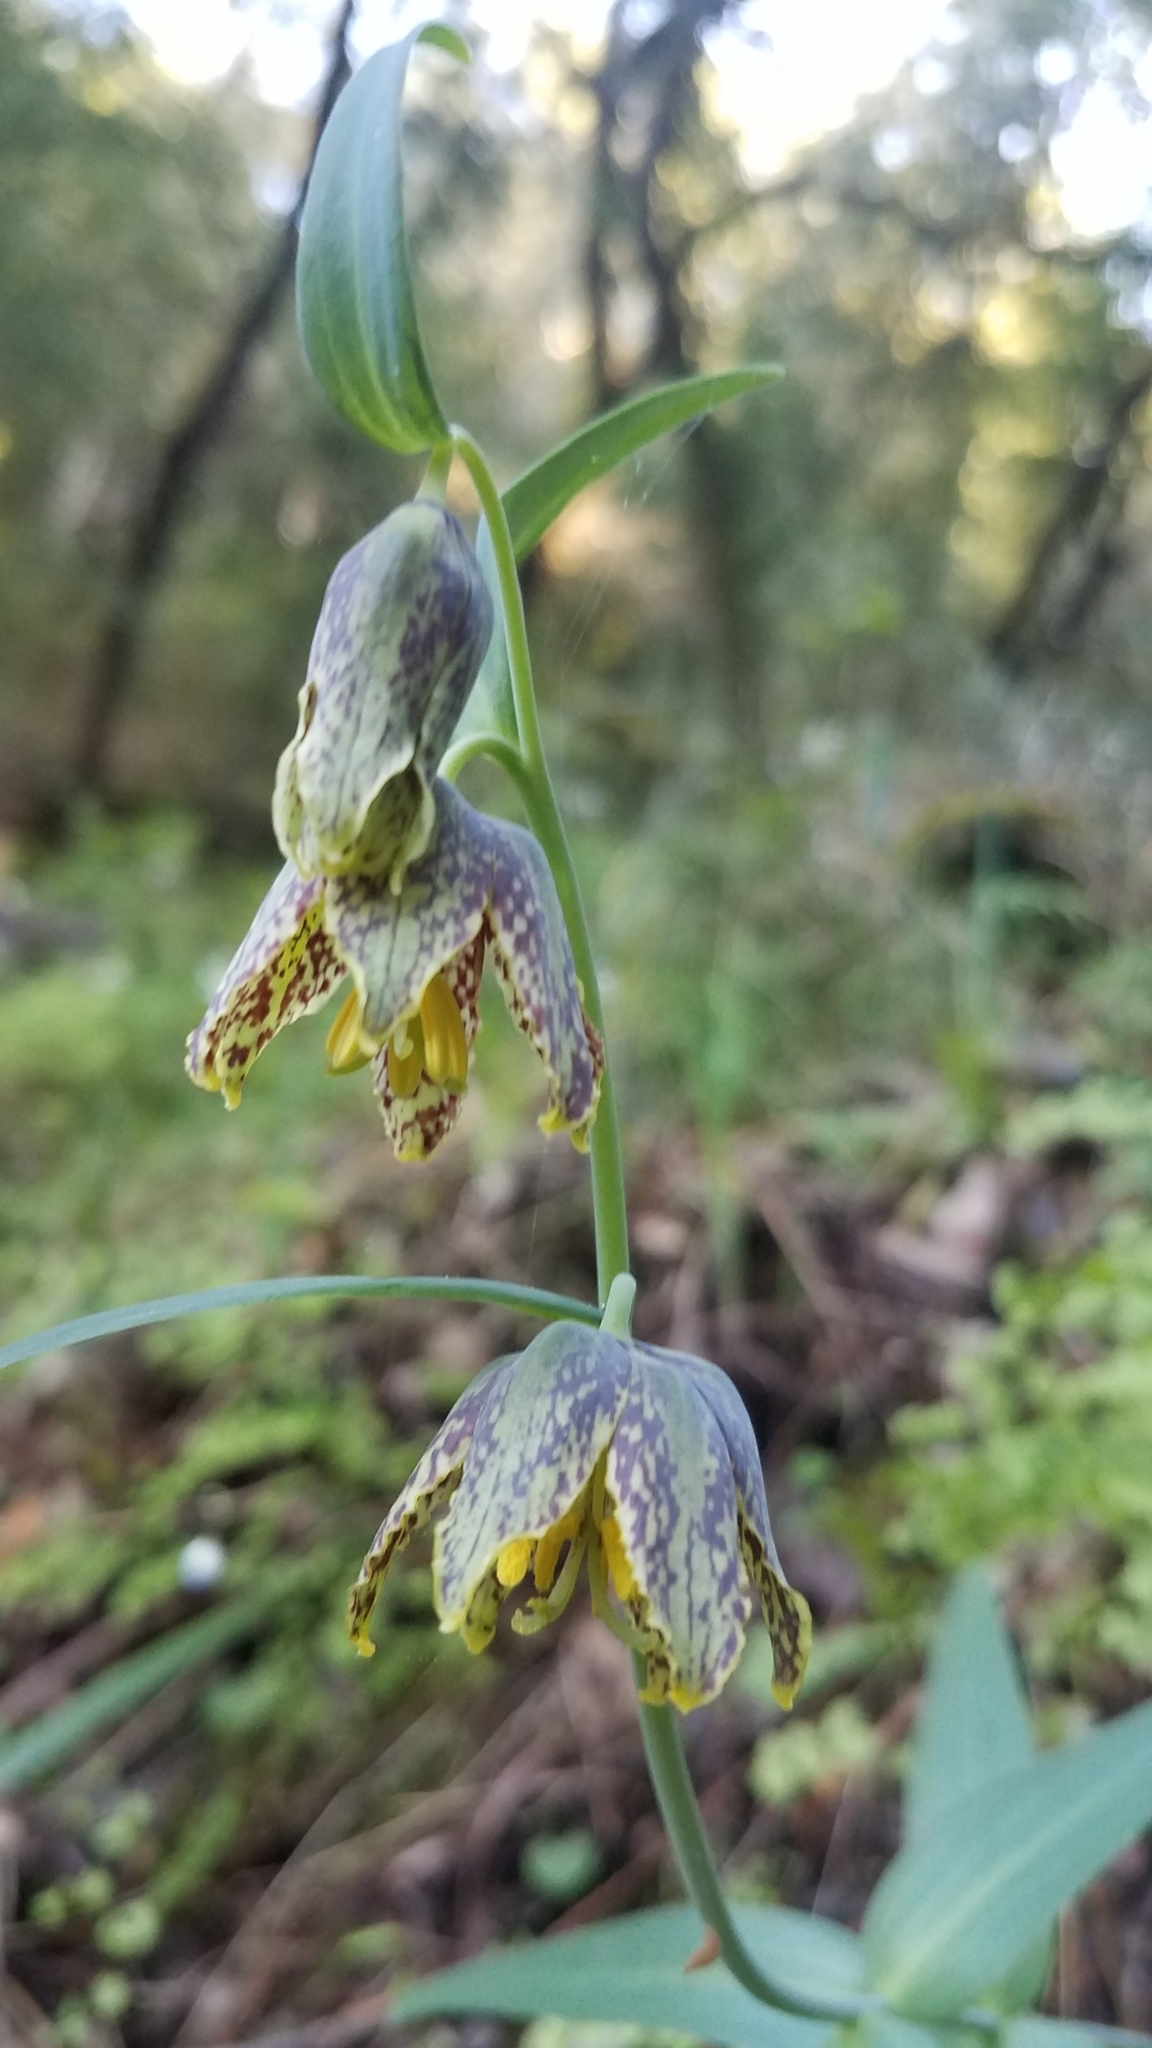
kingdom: Plantae
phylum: Tracheophyta
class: Liliopsida
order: Liliales
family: Liliaceae
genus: Fritillaria
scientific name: Fritillaria affinis
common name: Ojai fritillary
